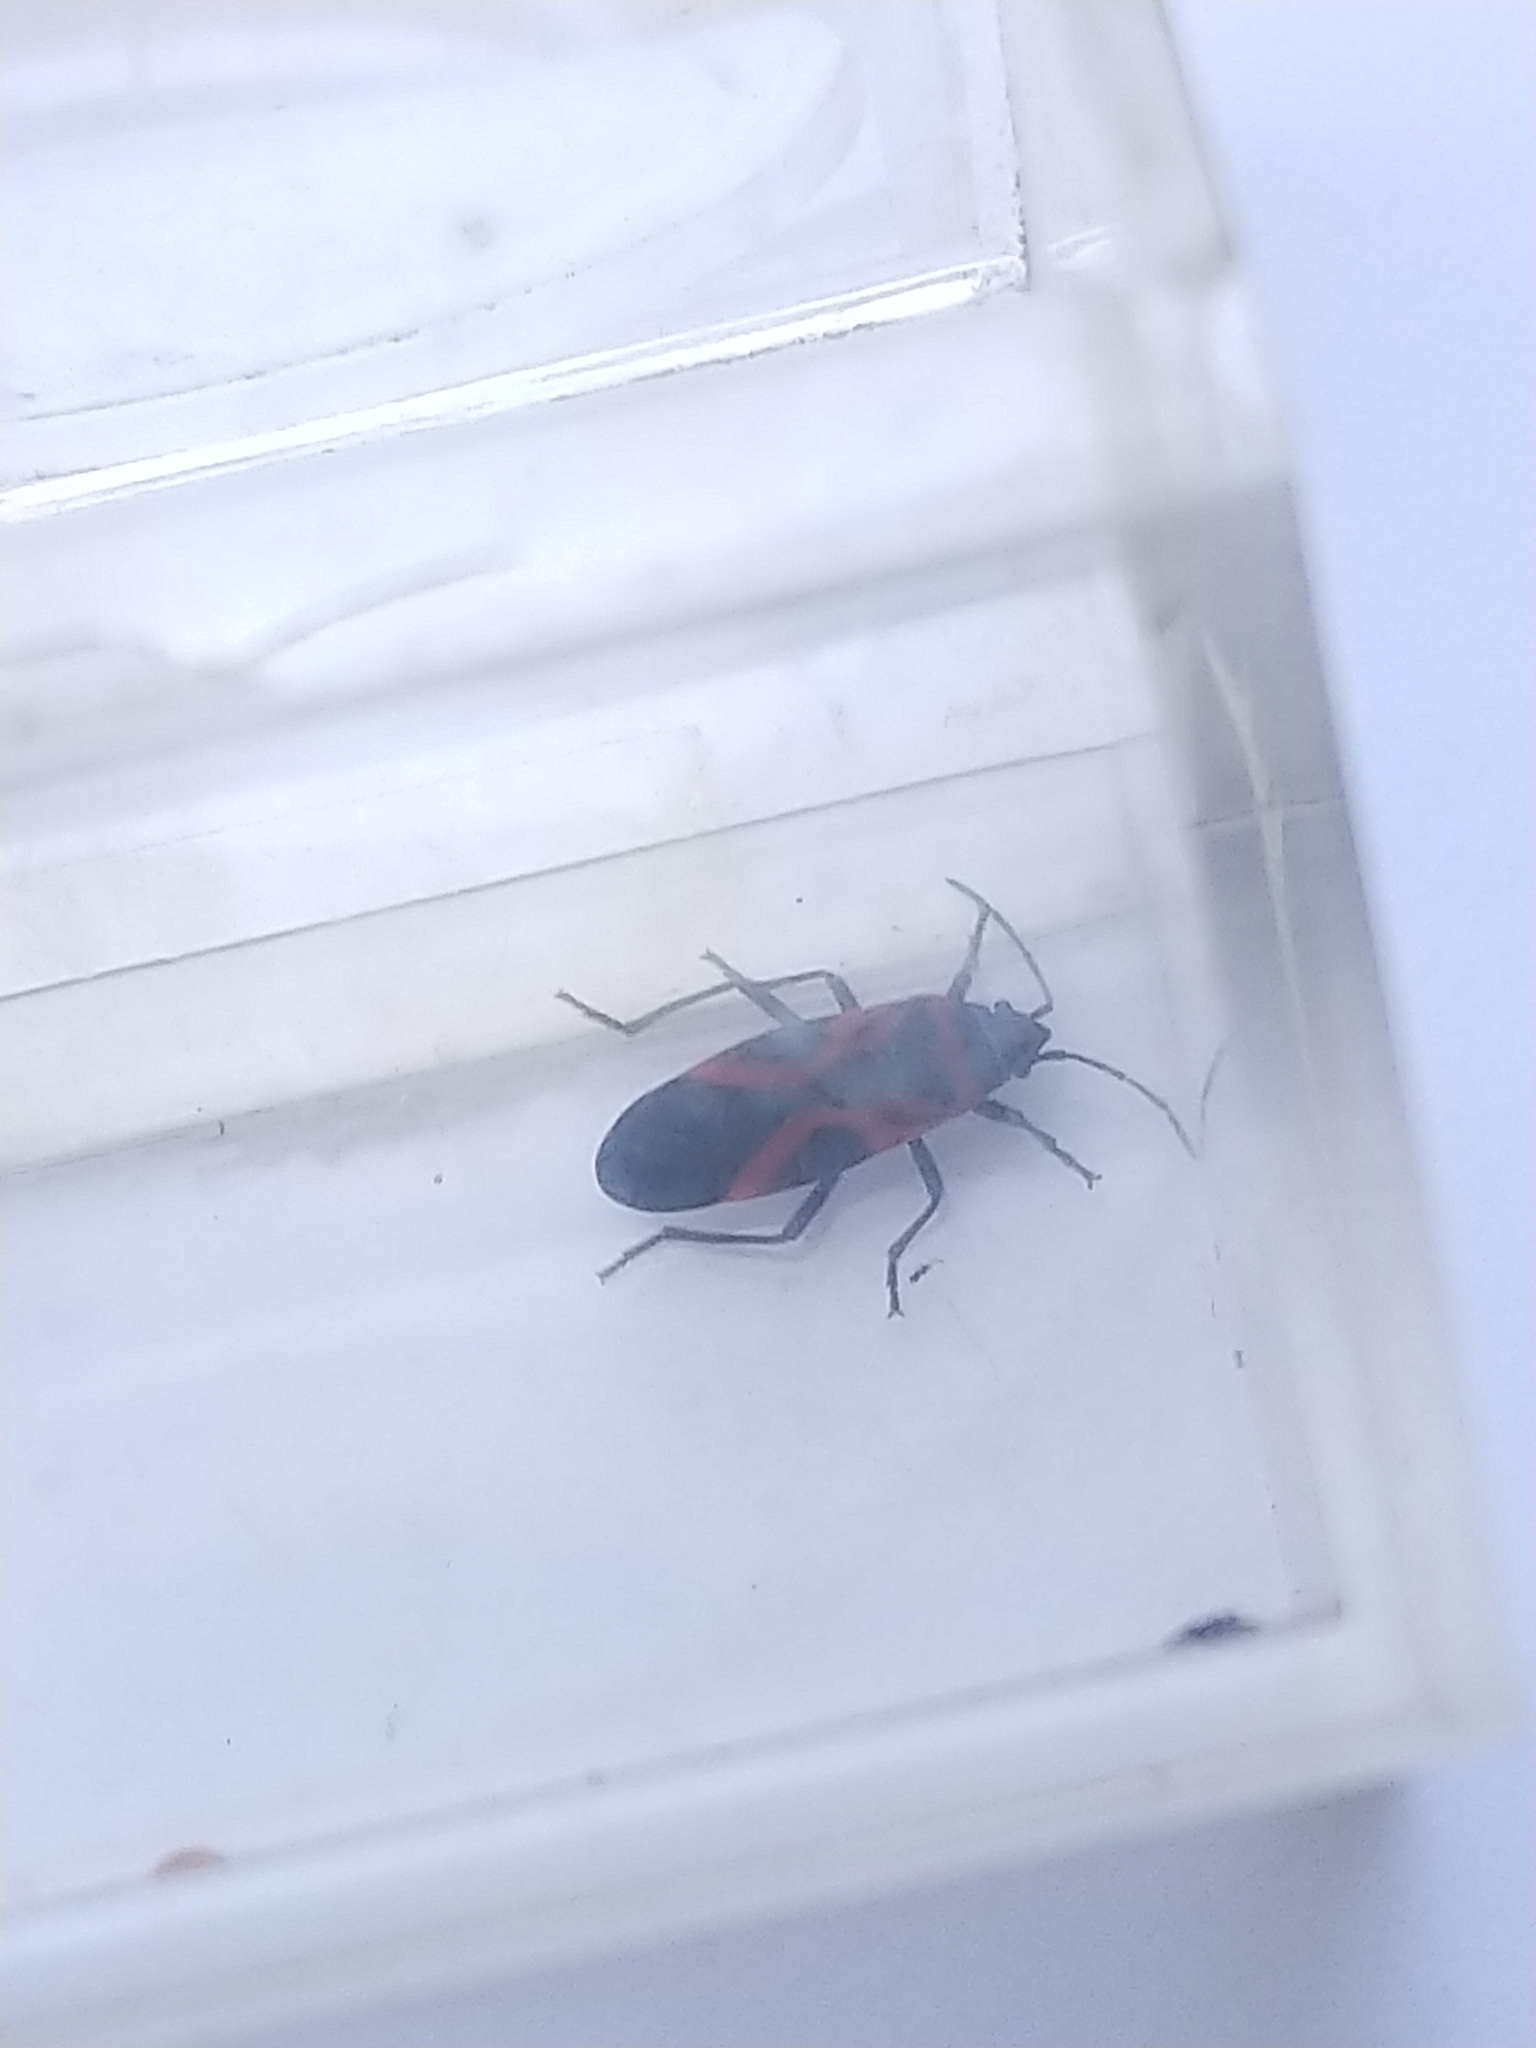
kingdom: Animalia
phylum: Arthropoda
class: Insecta
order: Hemiptera
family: Lygaeidae
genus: Lygaeus
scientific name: Lygaeus turcicus
